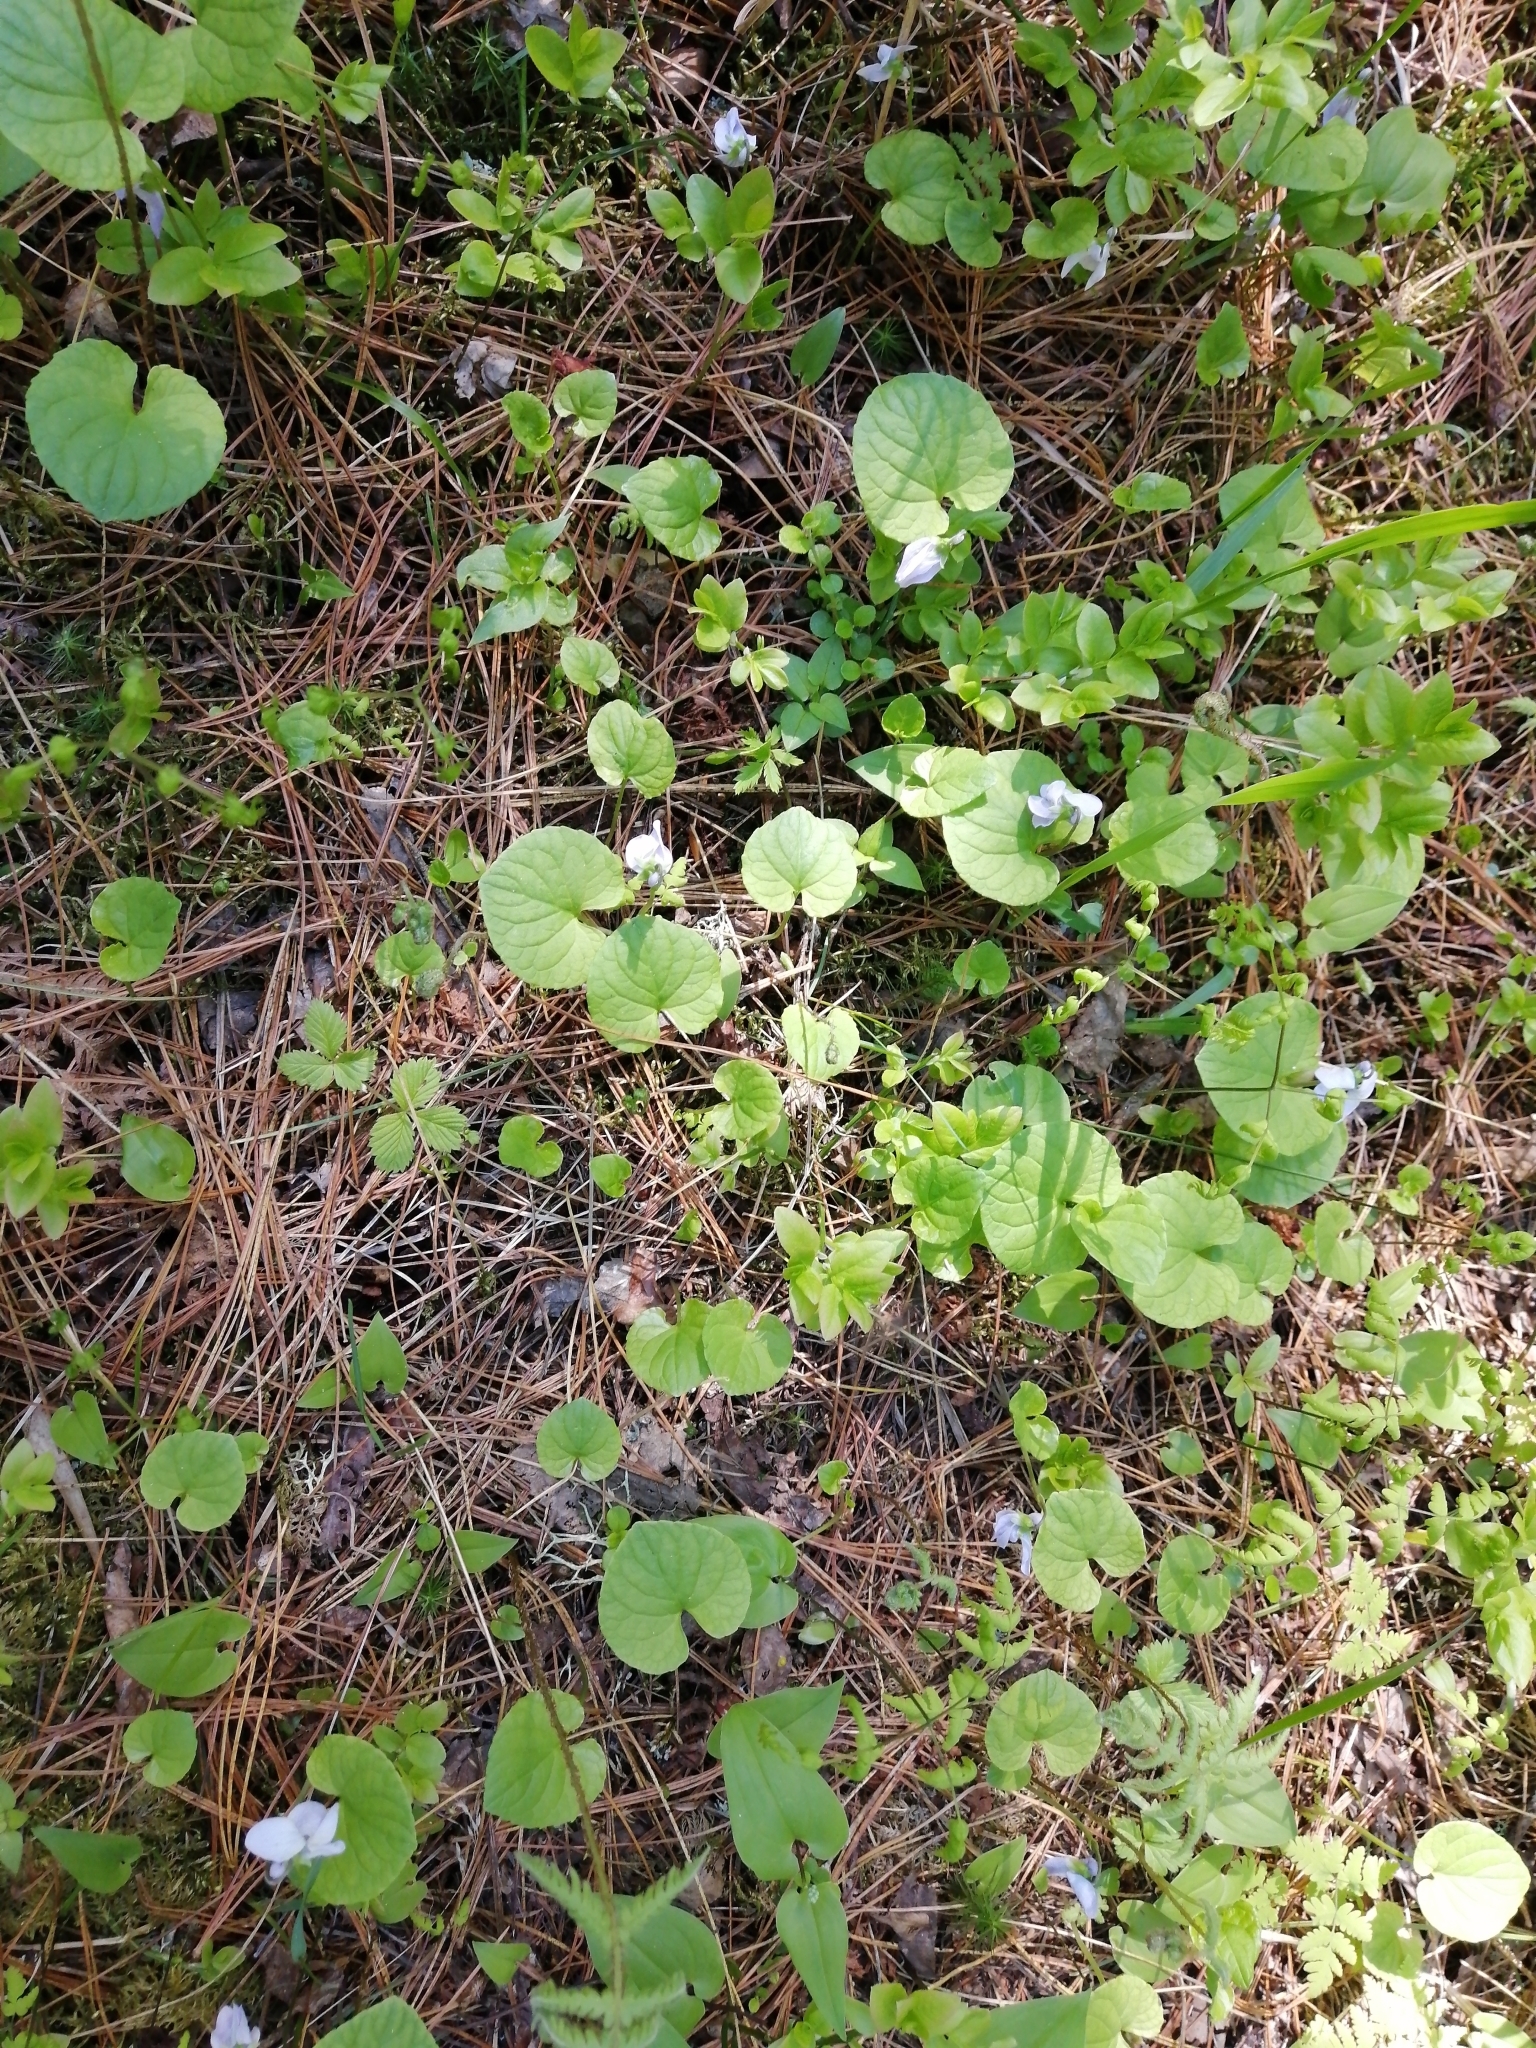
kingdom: Plantae
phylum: Tracheophyta
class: Magnoliopsida
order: Malpighiales
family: Violaceae
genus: Viola
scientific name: Viola epipsila
